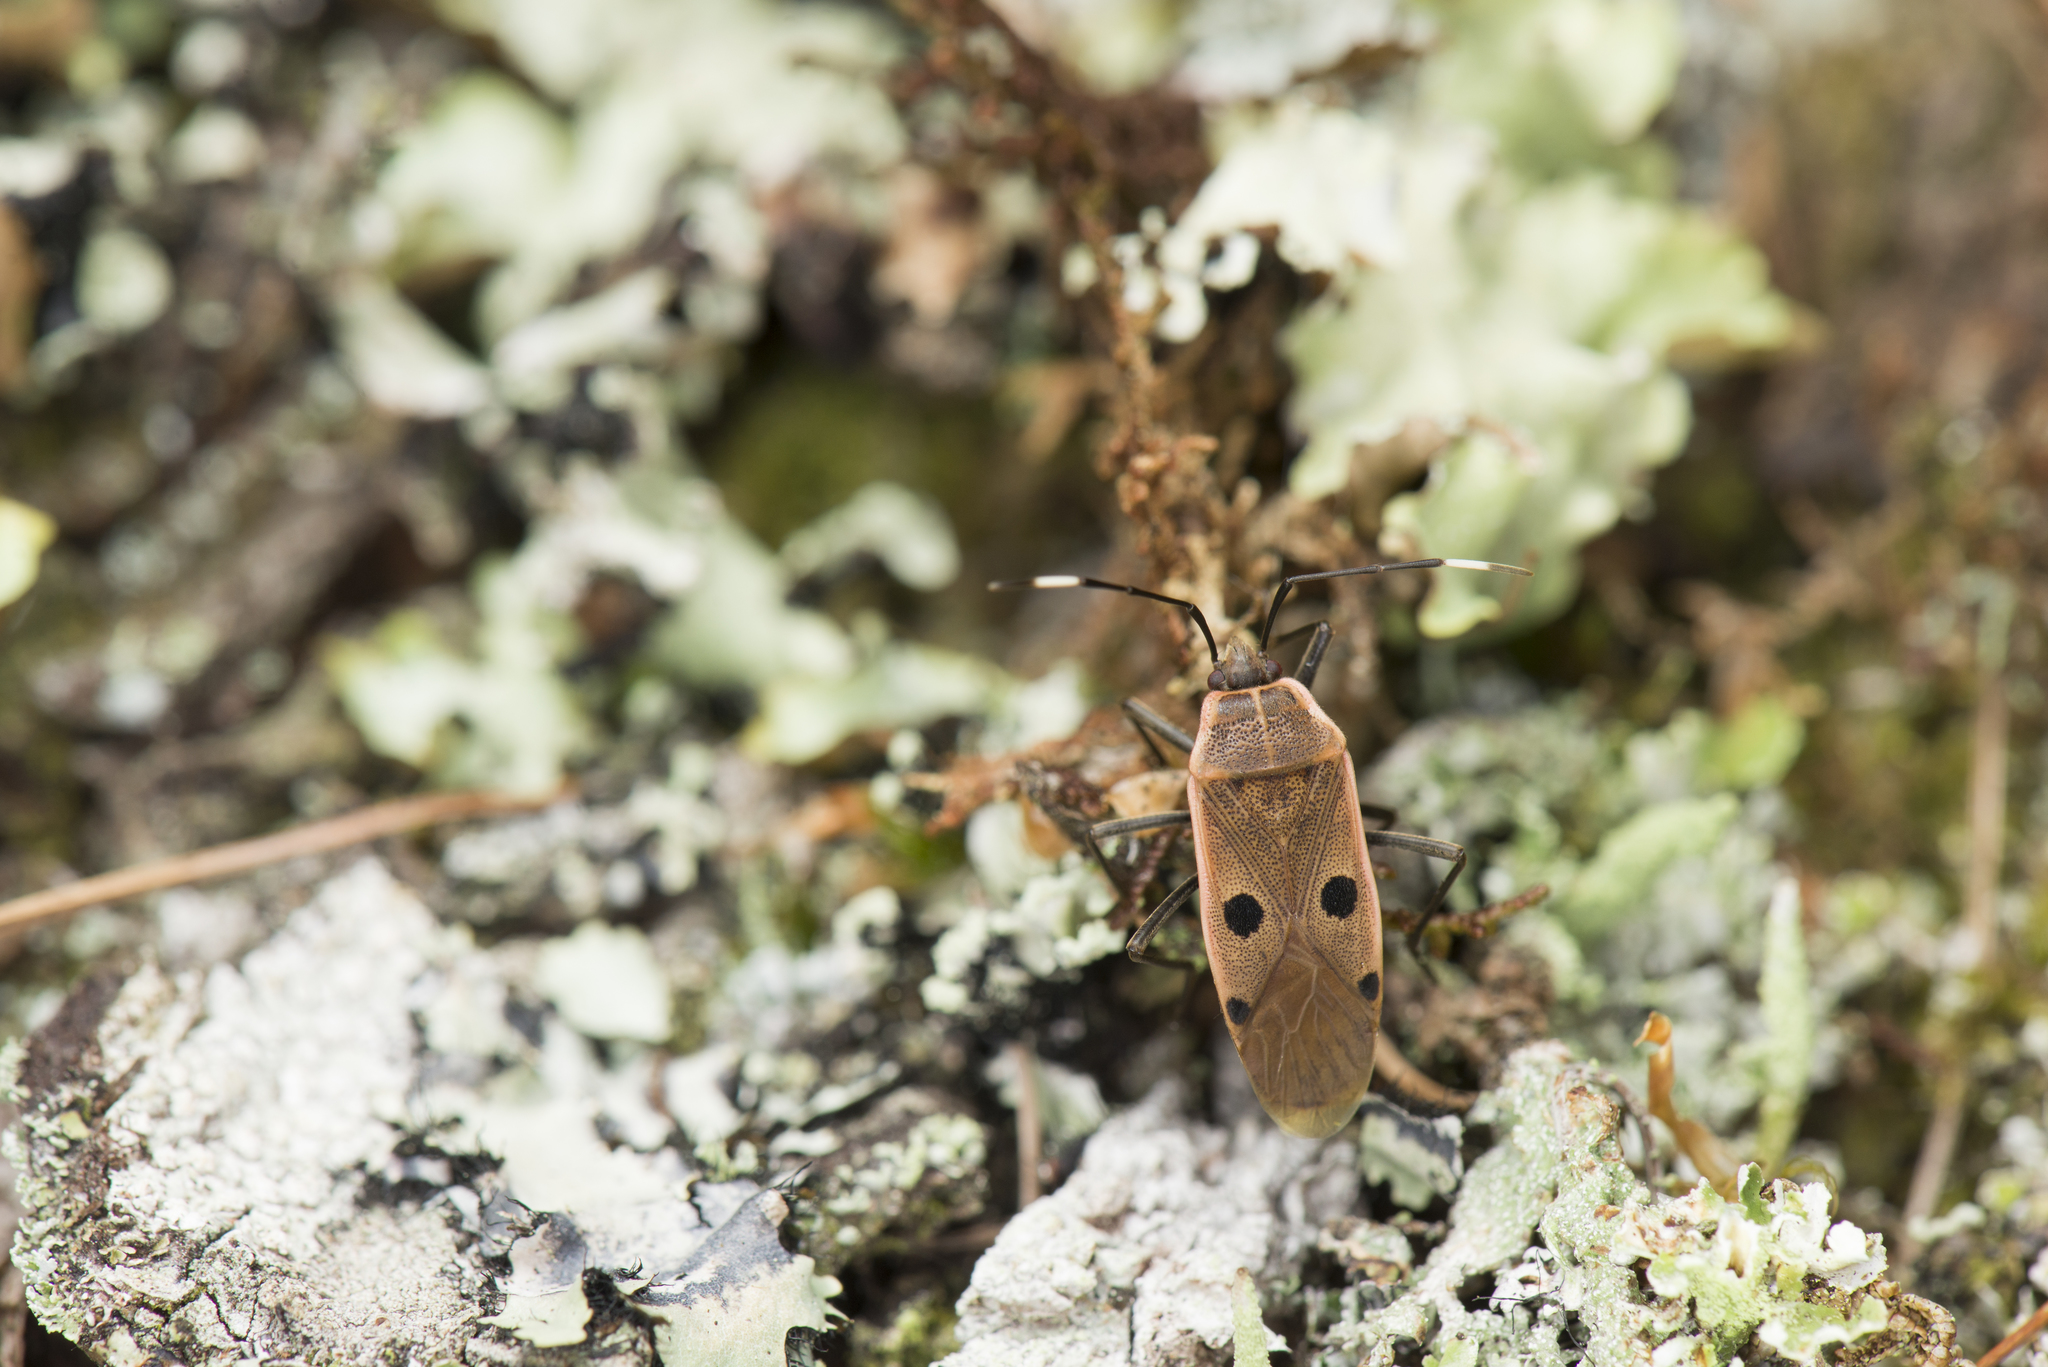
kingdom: Animalia
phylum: Arthropoda
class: Insecta
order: Hemiptera
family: Largidae
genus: Physopelta
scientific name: Physopelta quadriguttata
